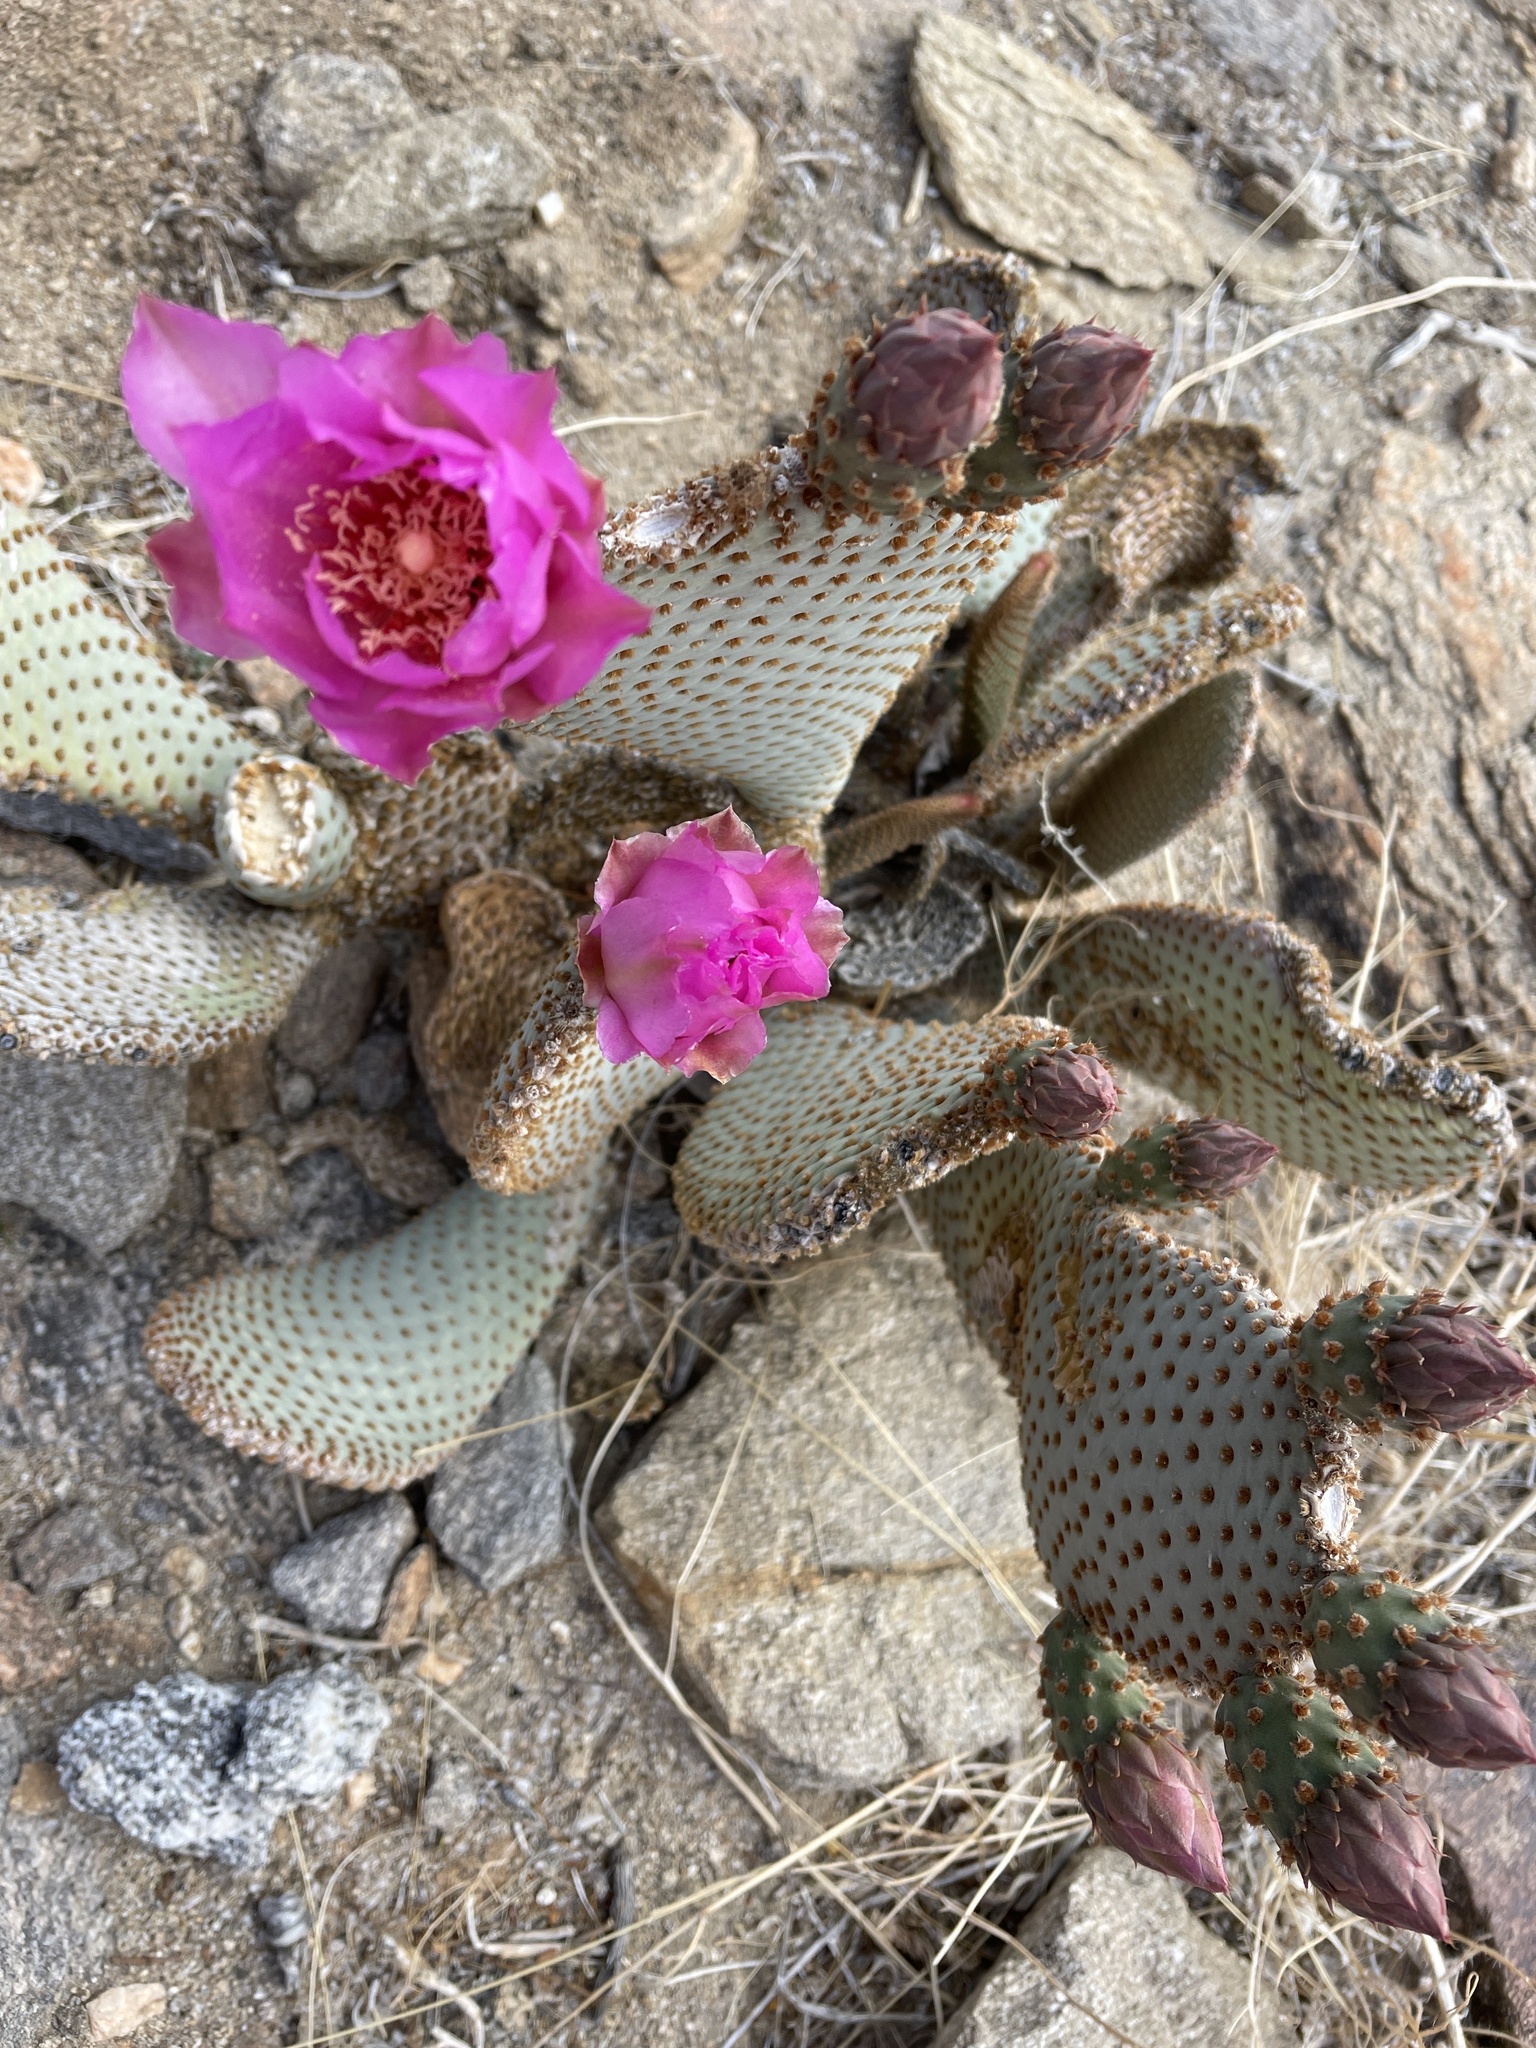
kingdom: Plantae
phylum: Tracheophyta
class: Magnoliopsida
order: Caryophyllales
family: Cactaceae
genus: Opuntia
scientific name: Opuntia basilaris
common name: Beavertail prickly-pear
